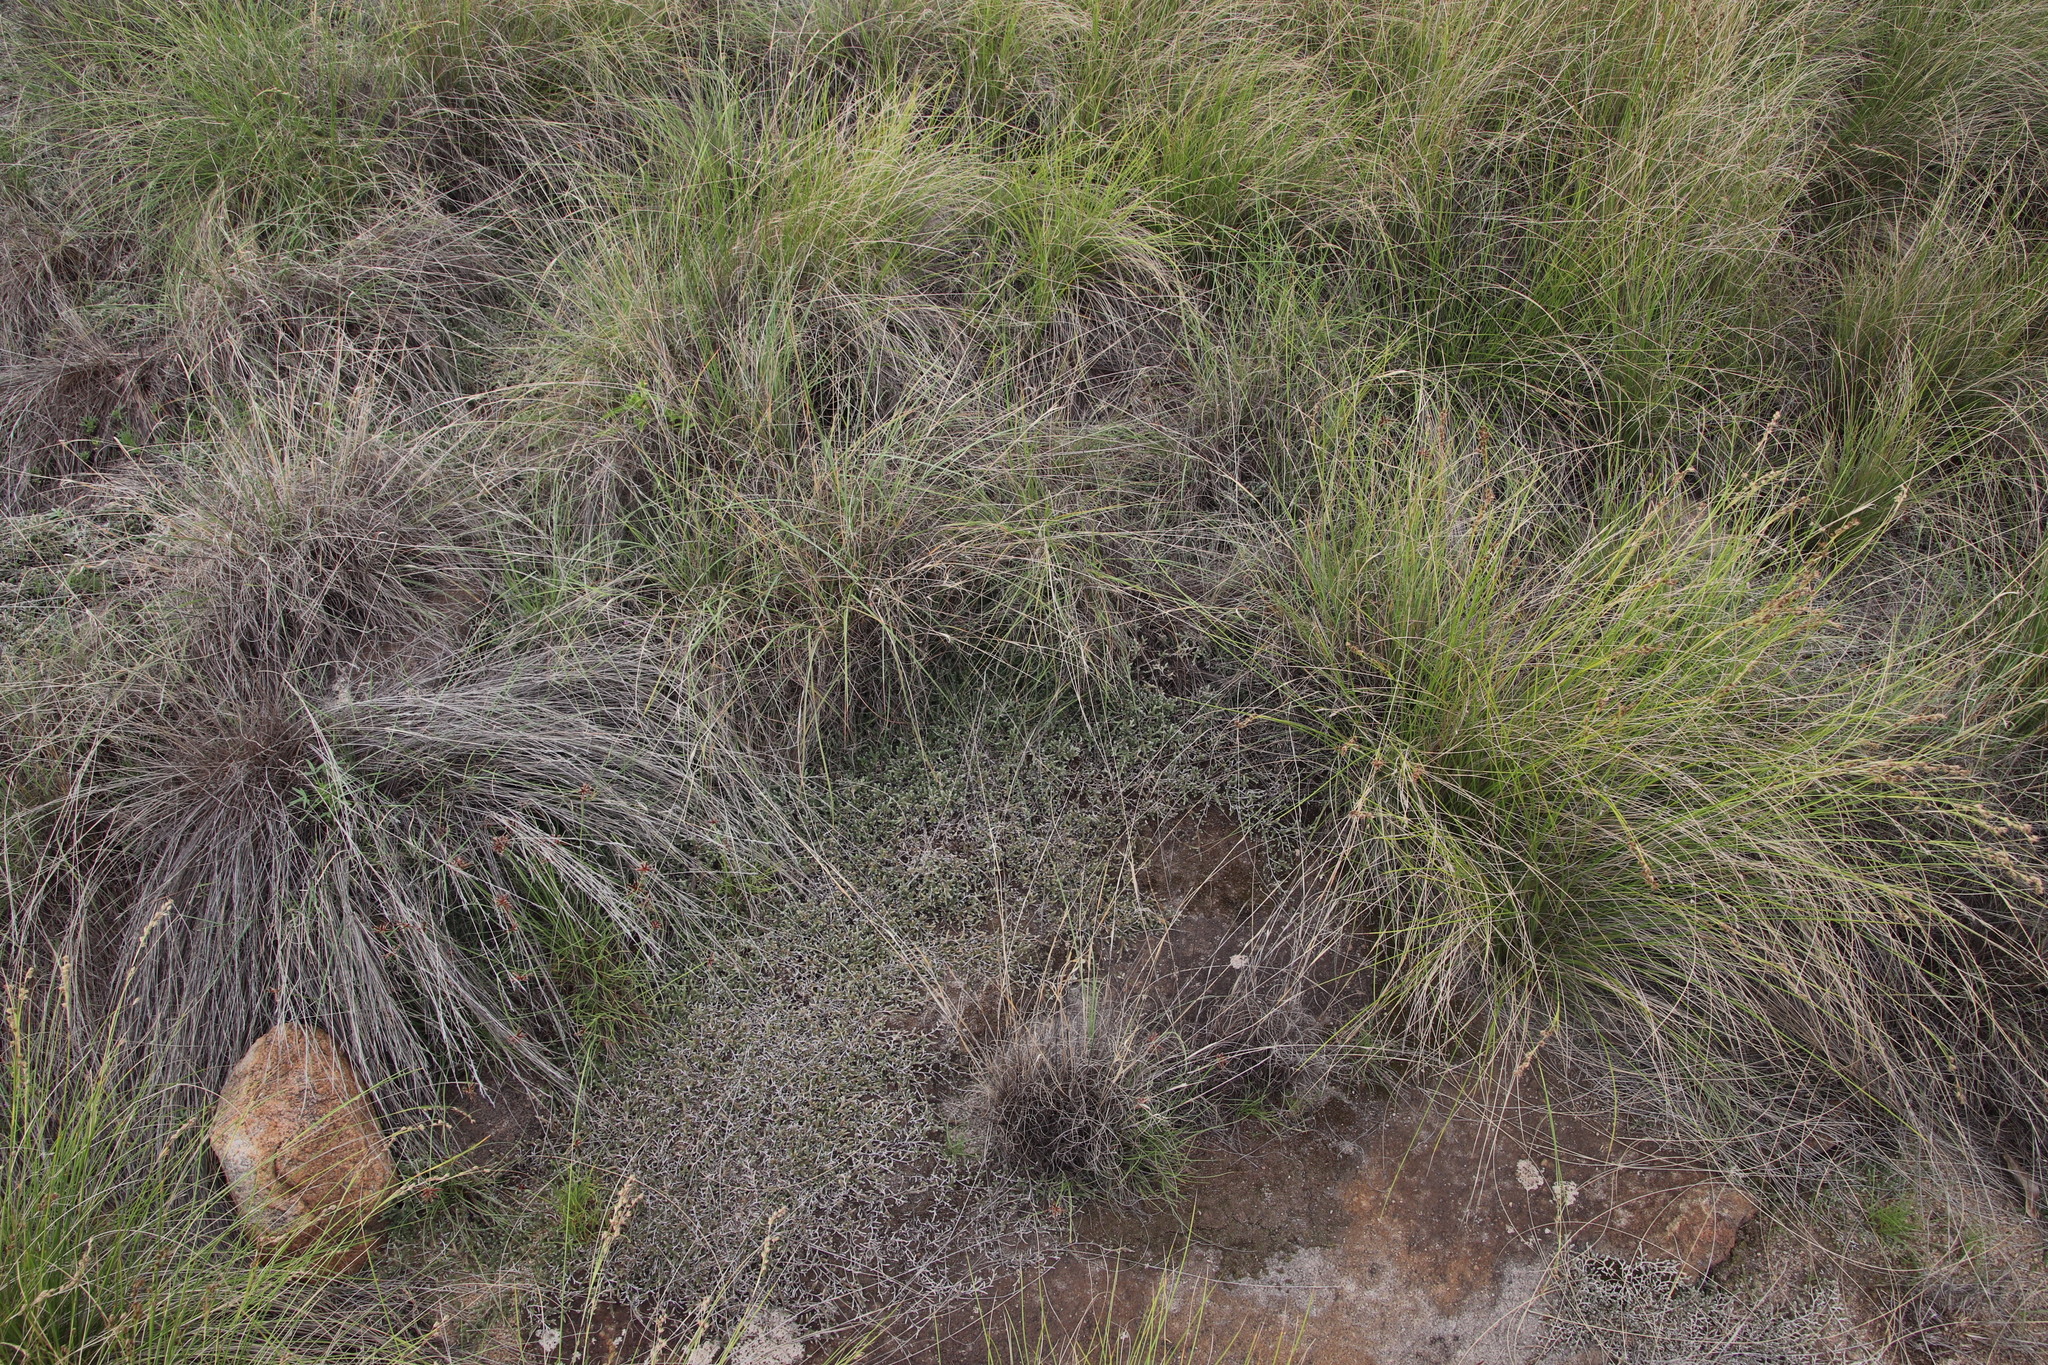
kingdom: Plantae
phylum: Tracheophyta
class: Lycopodiopsida
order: Selaginellales
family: Selaginellaceae
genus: Selaginella
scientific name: Selaginella dregei
